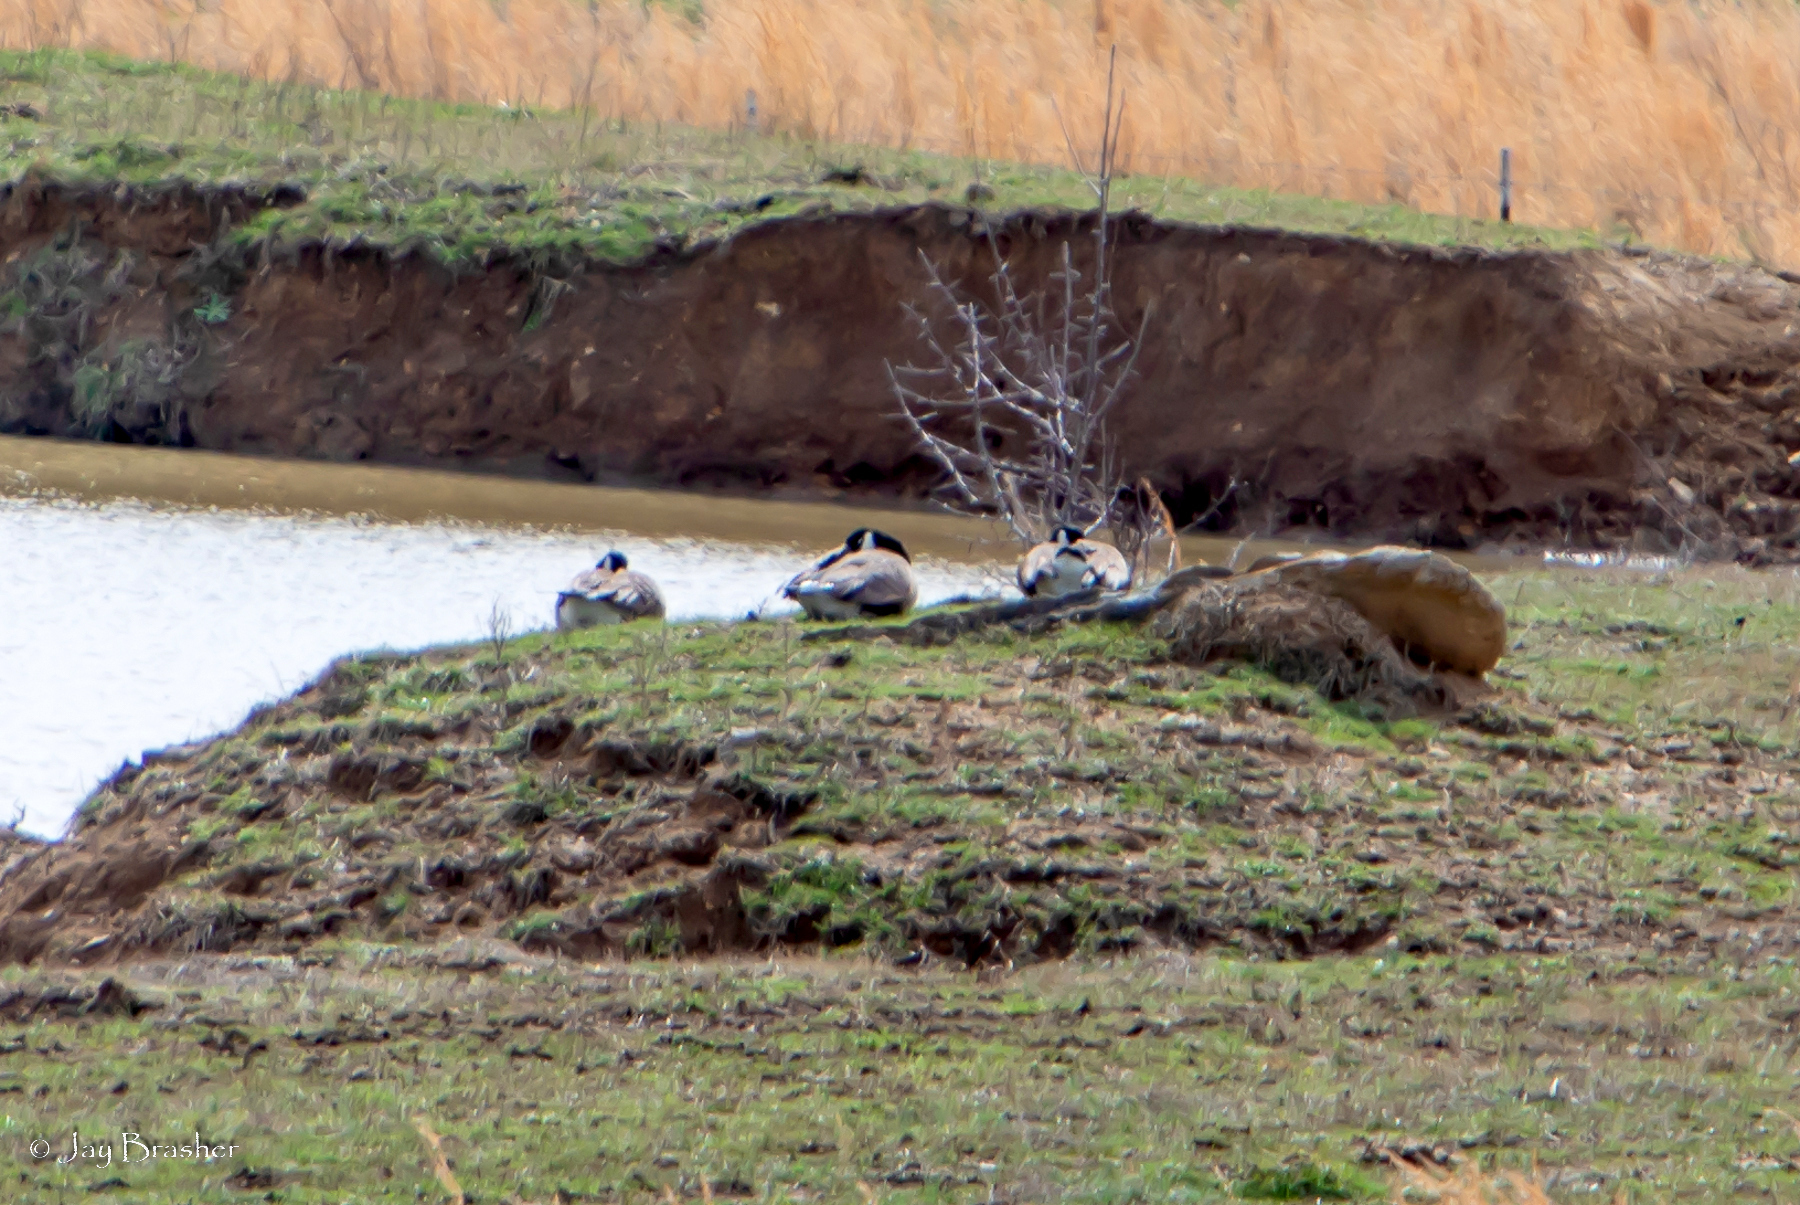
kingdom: Animalia
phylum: Chordata
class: Aves
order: Anseriformes
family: Anatidae
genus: Branta
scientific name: Branta canadensis
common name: Canada goose
